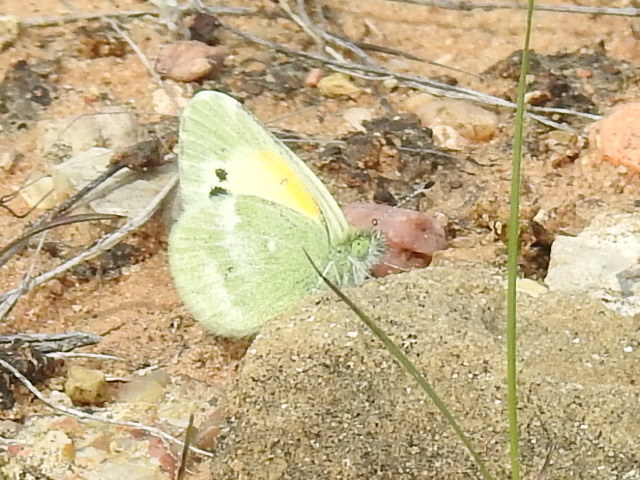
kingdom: Animalia
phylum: Arthropoda
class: Insecta
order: Lepidoptera
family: Pieridae
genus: Nathalis
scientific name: Nathalis iole
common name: Dainty sulphur
